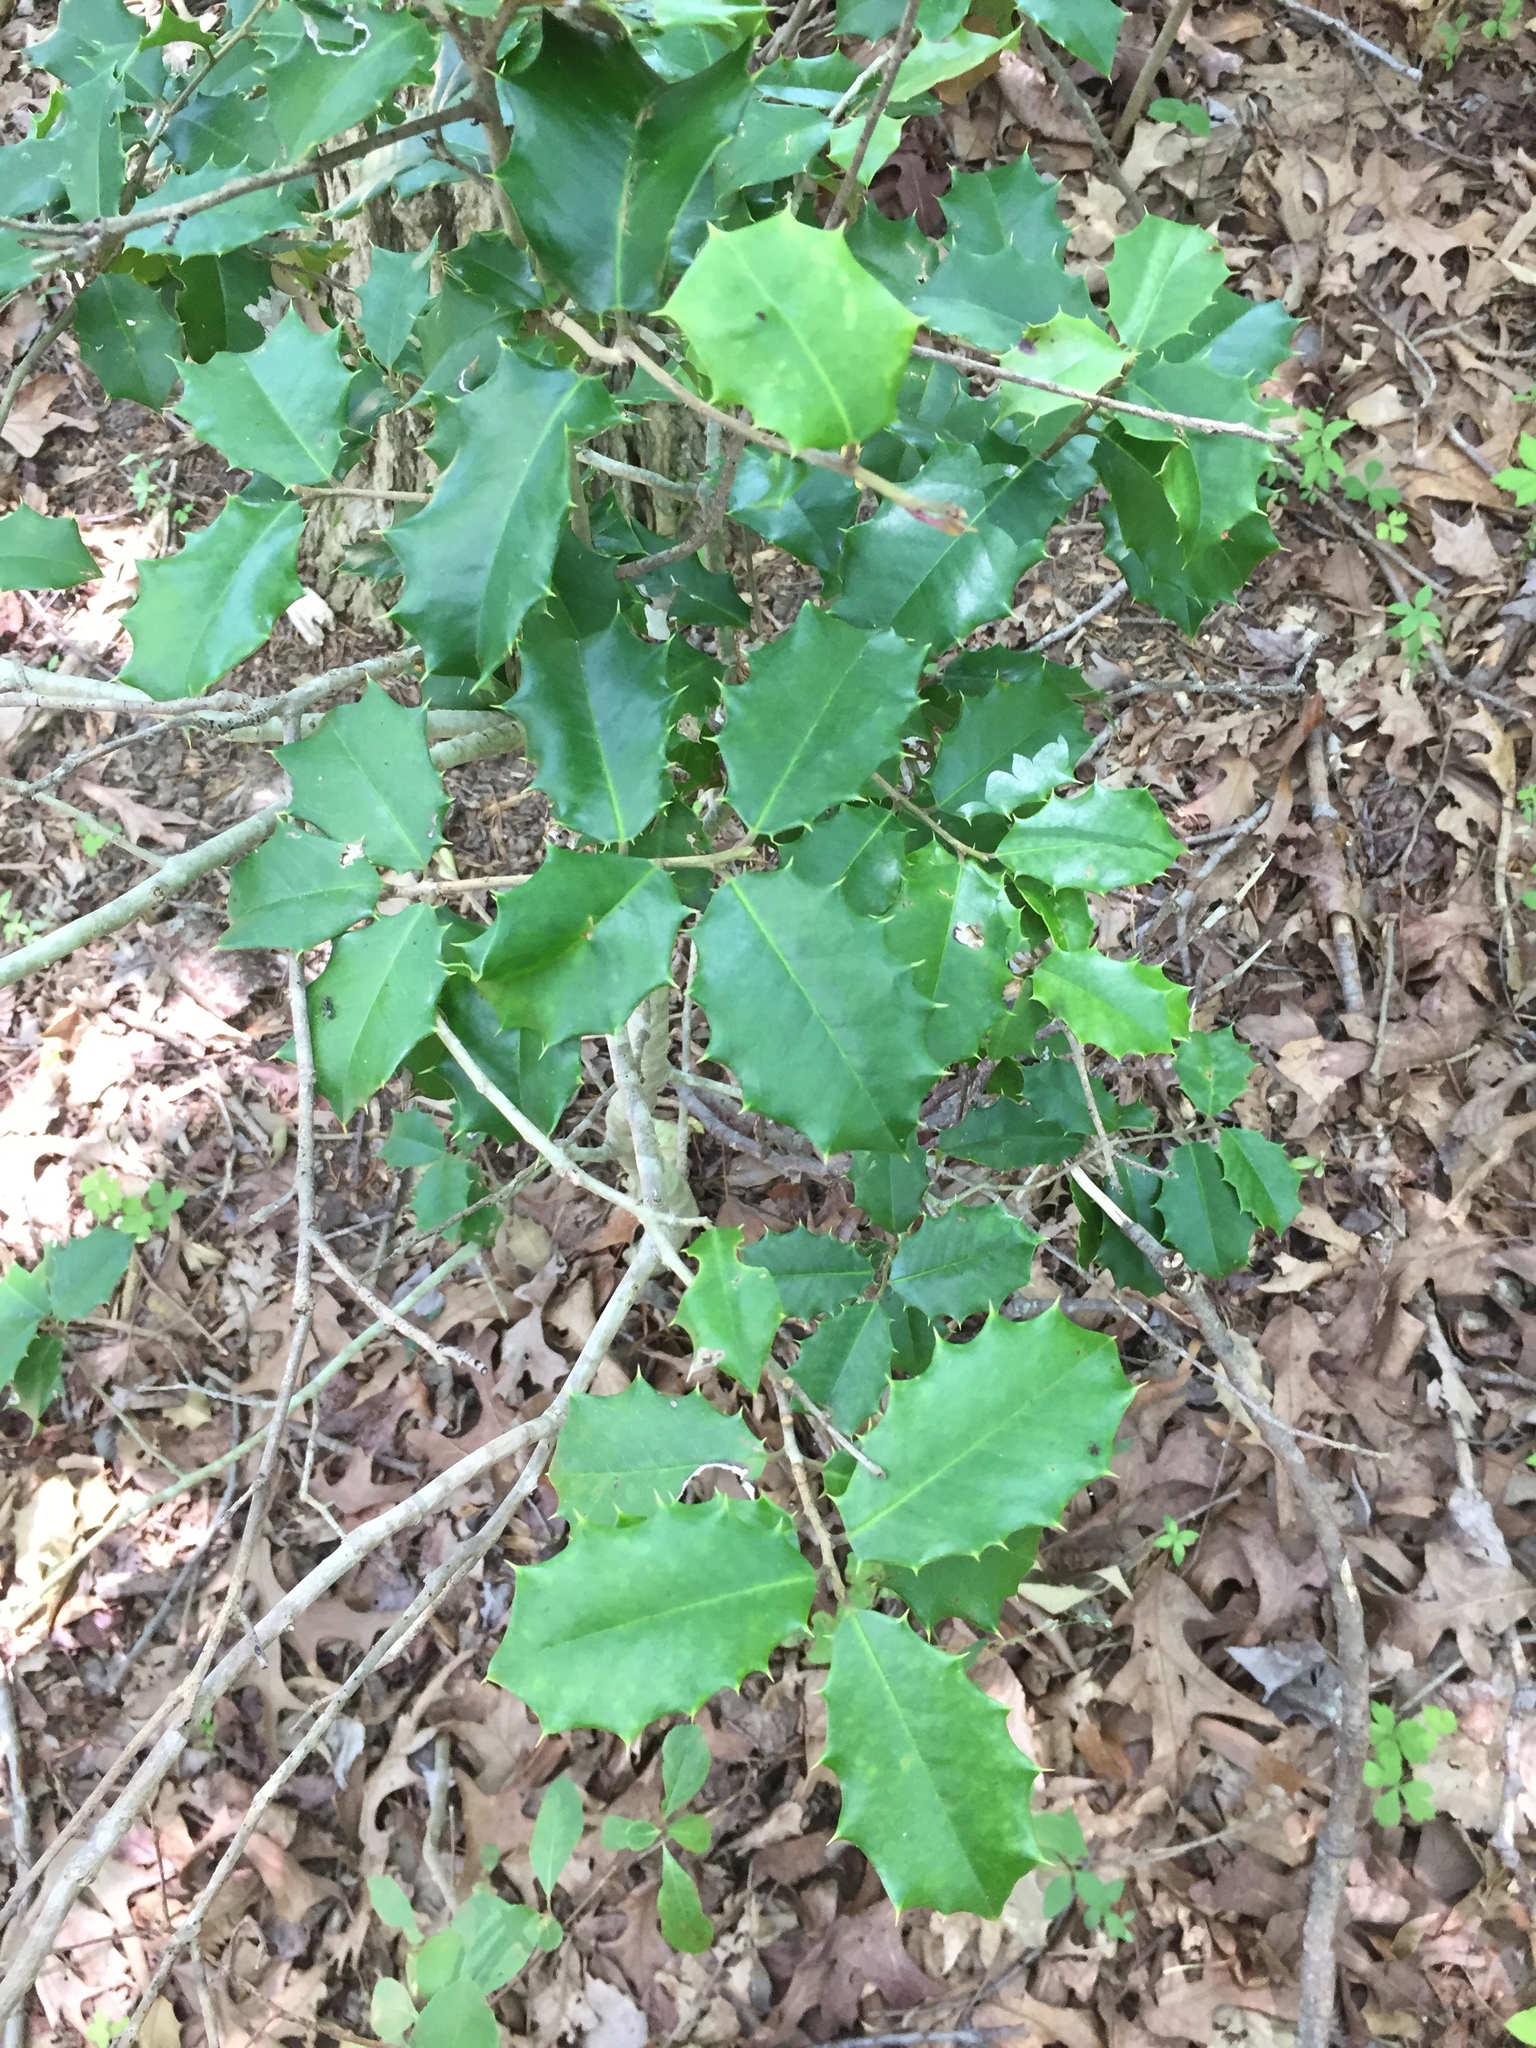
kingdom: Plantae
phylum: Tracheophyta
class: Magnoliopsida
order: Aquifoliales
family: Aquifoliaceae
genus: Ilex
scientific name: Ilex opaca
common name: American holly
